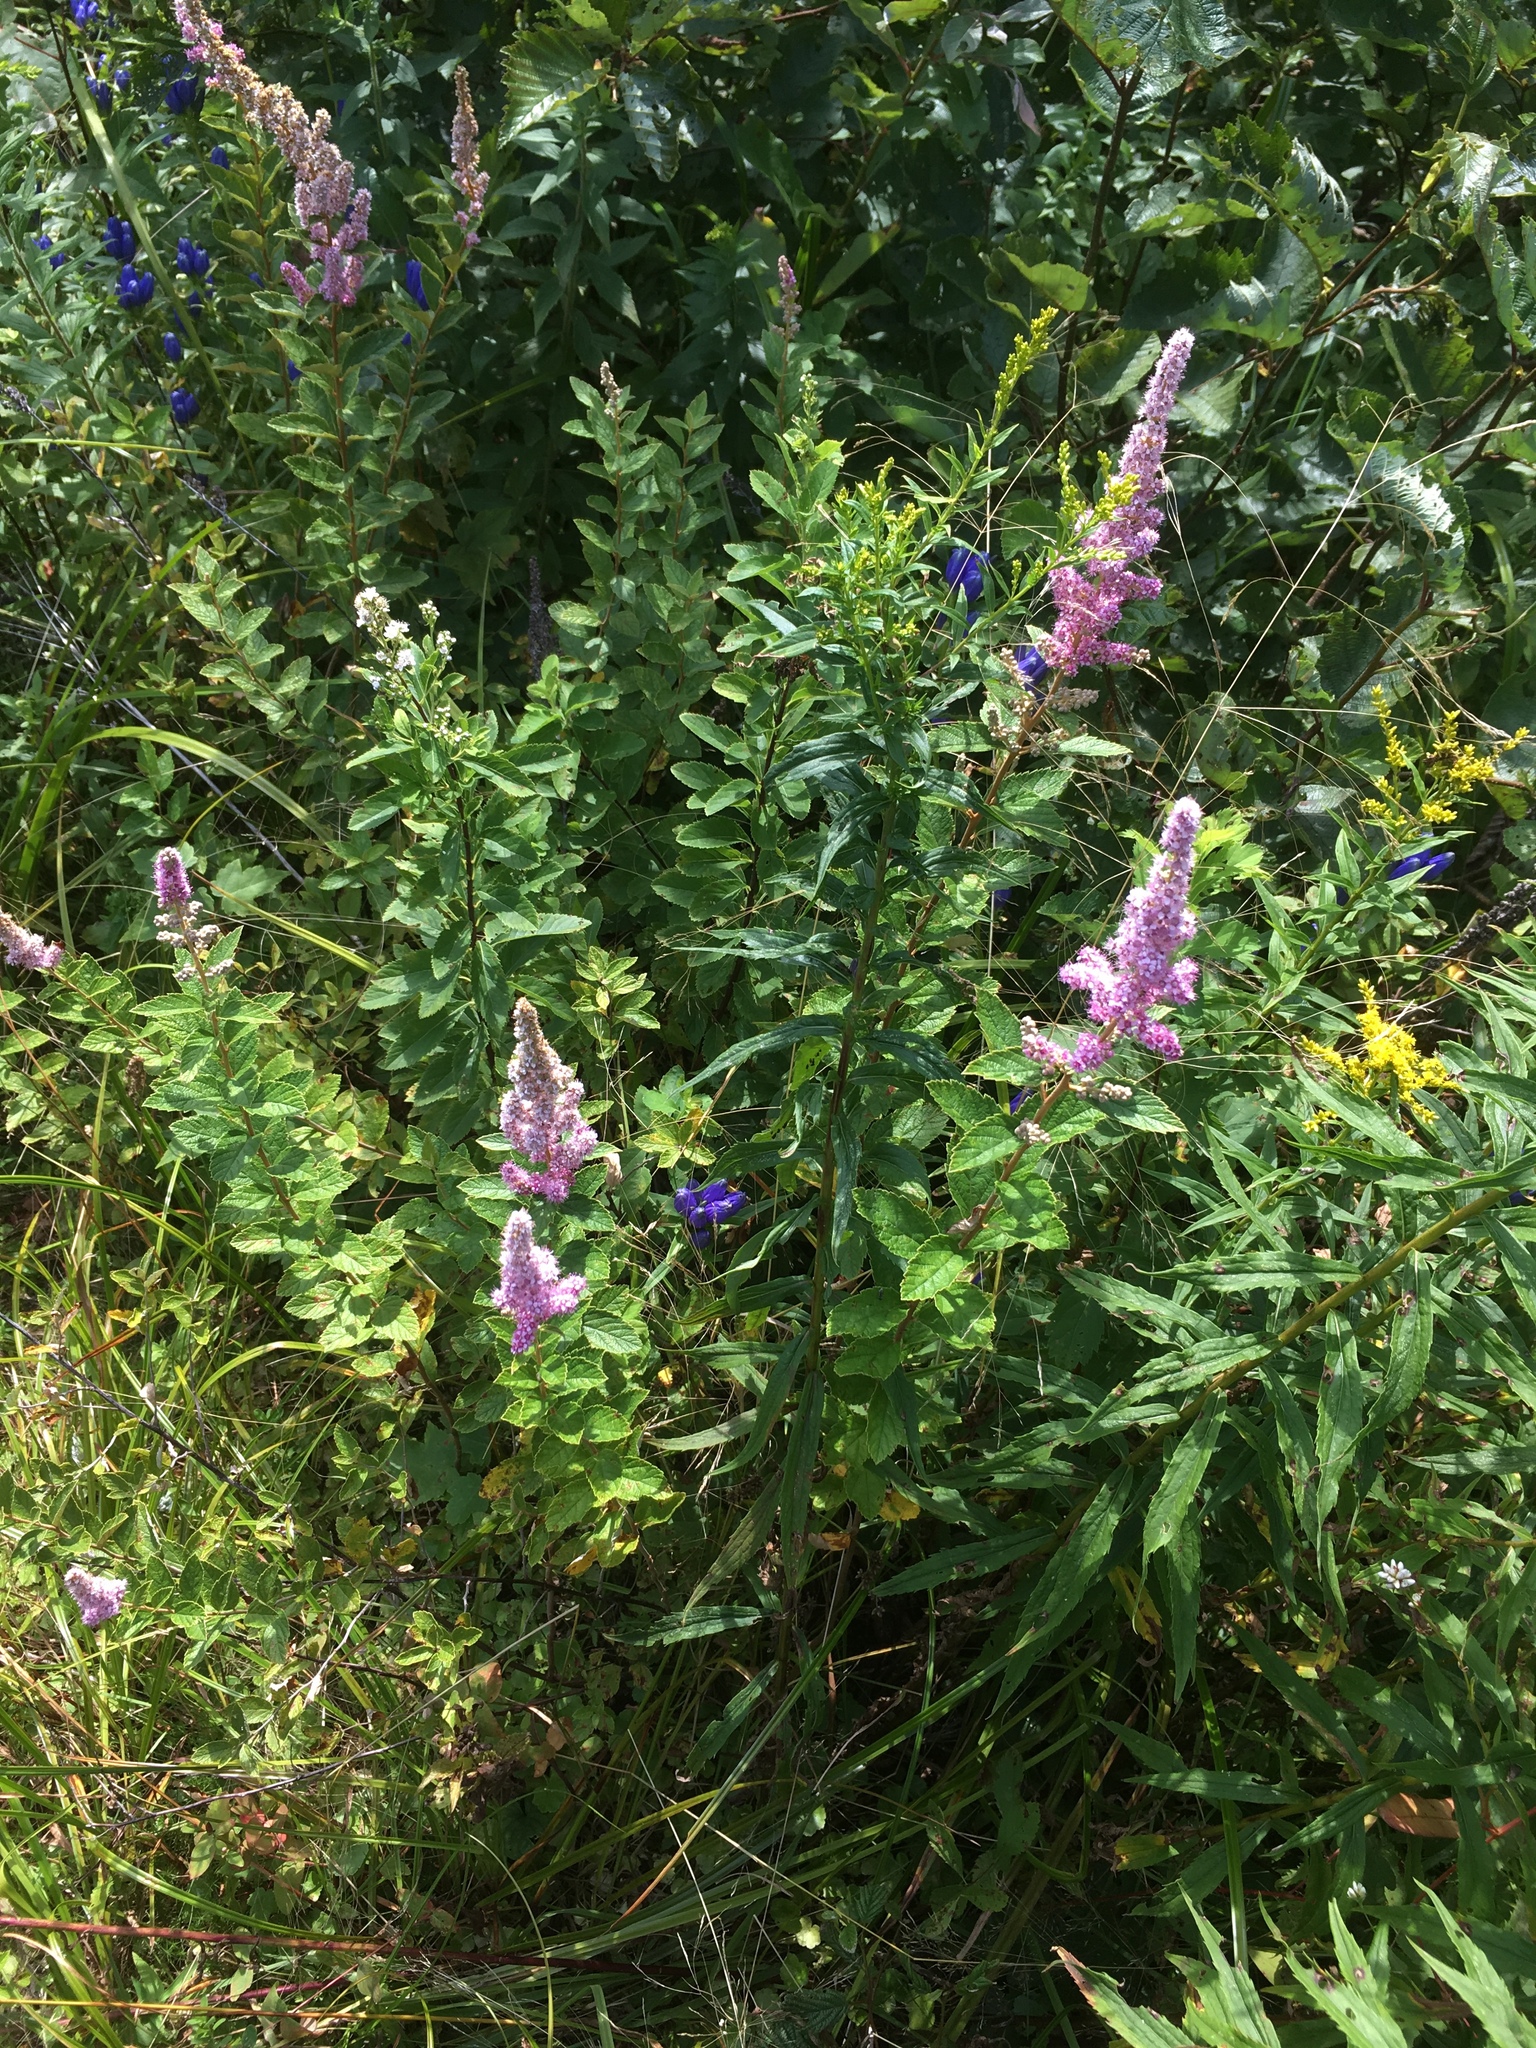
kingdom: Plantae
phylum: Tracheophyta
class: Magnoliopsida
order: Rosales
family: Rosaceae
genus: Spiraea
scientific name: Spiraea tomentosa
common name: Hardhack
